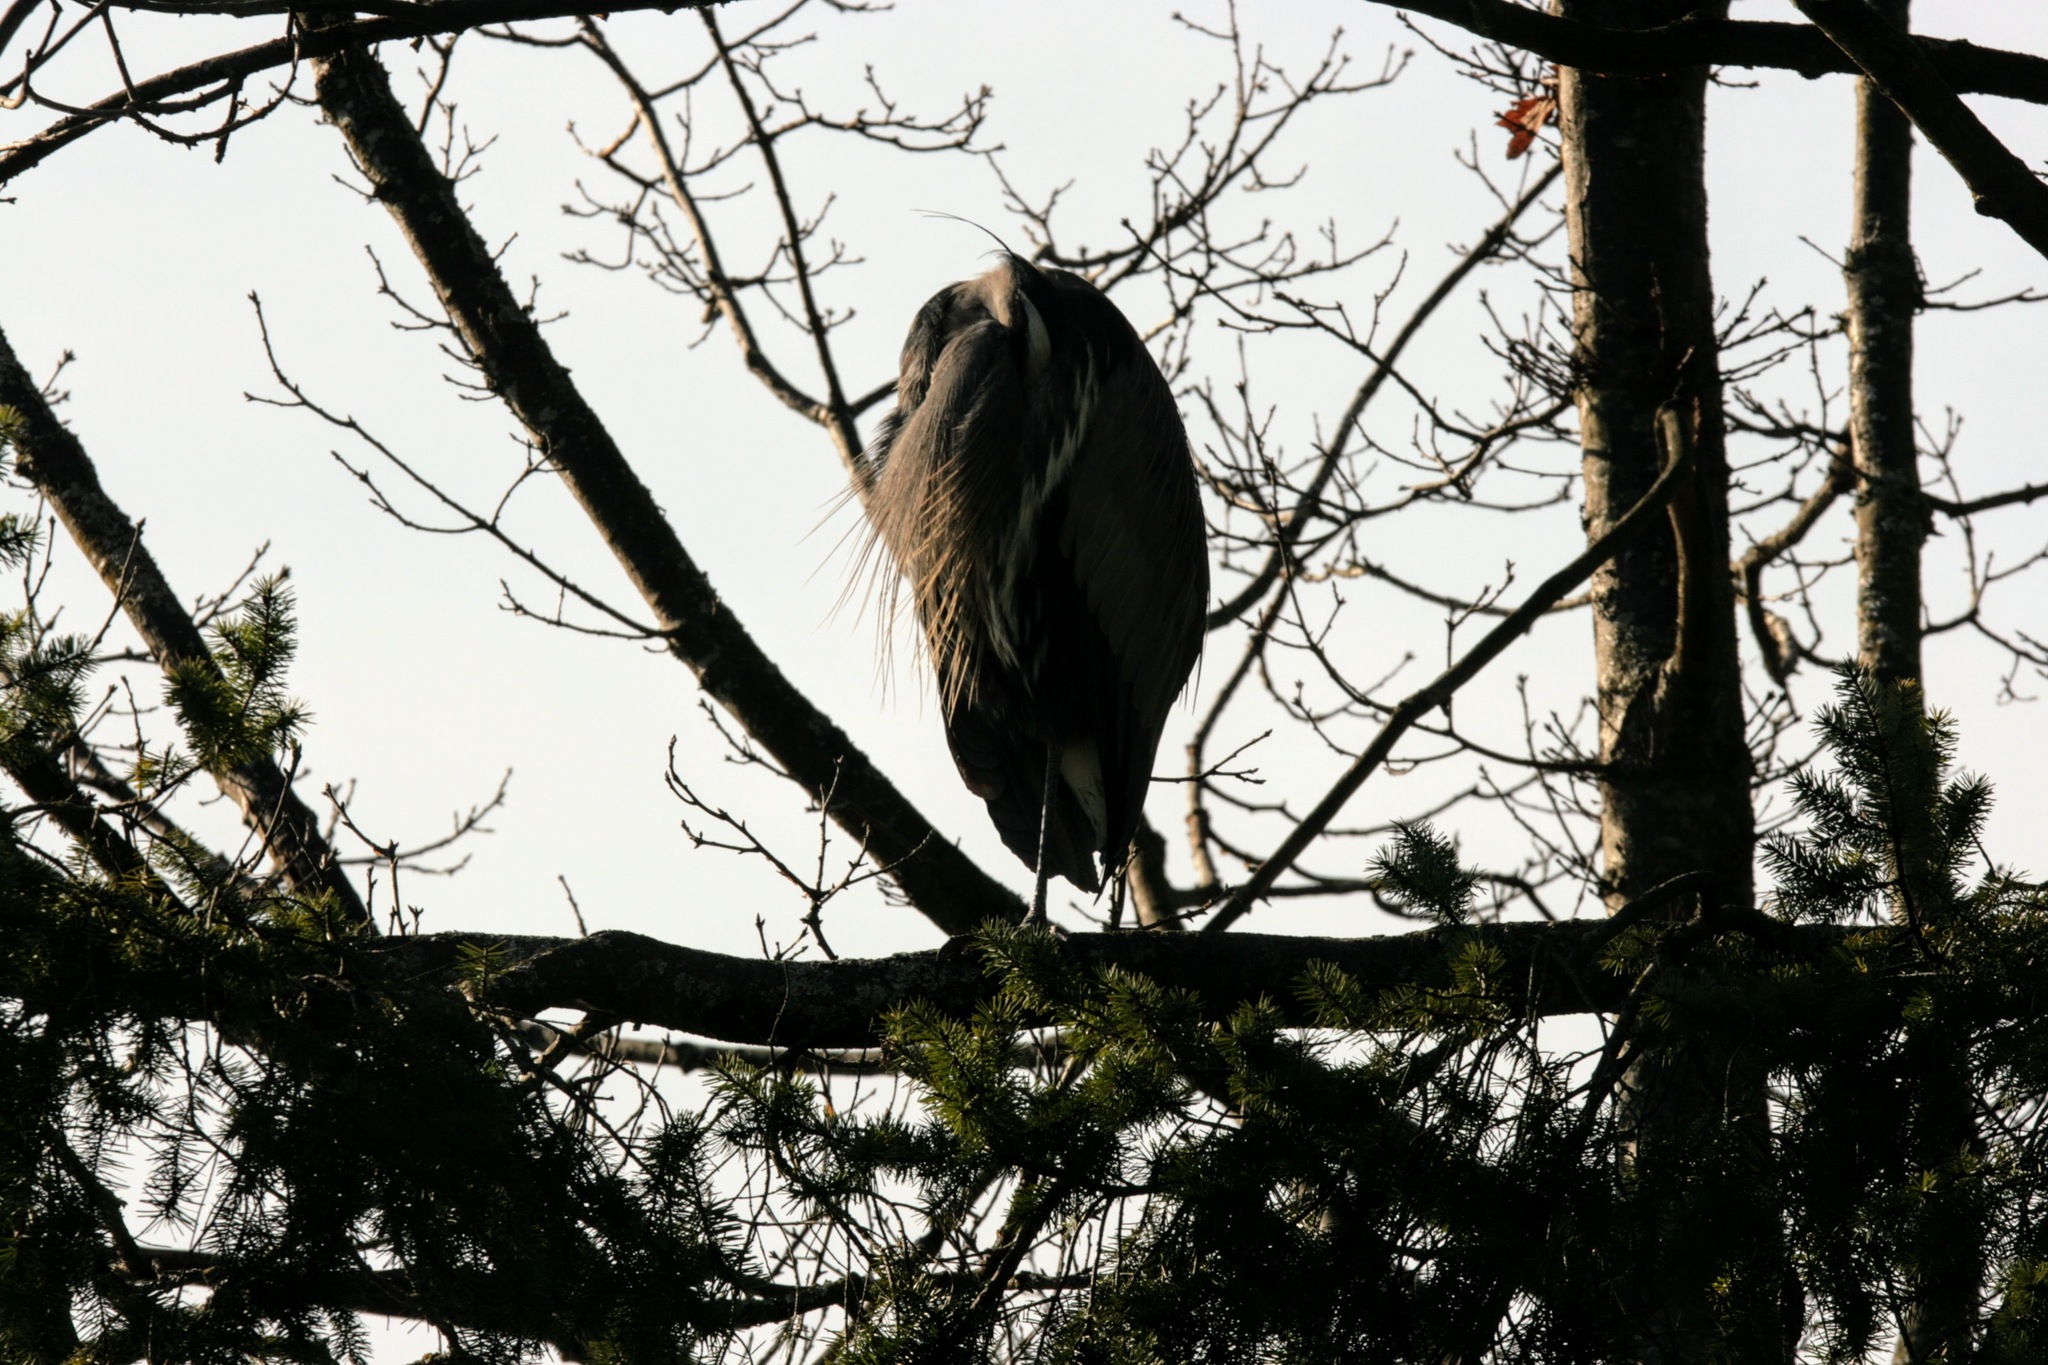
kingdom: Animalia
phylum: Chordata
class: Aves
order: Pelecaniformes
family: Ardeidae
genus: Ardea
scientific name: Ardea herodias
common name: Great blue heron
